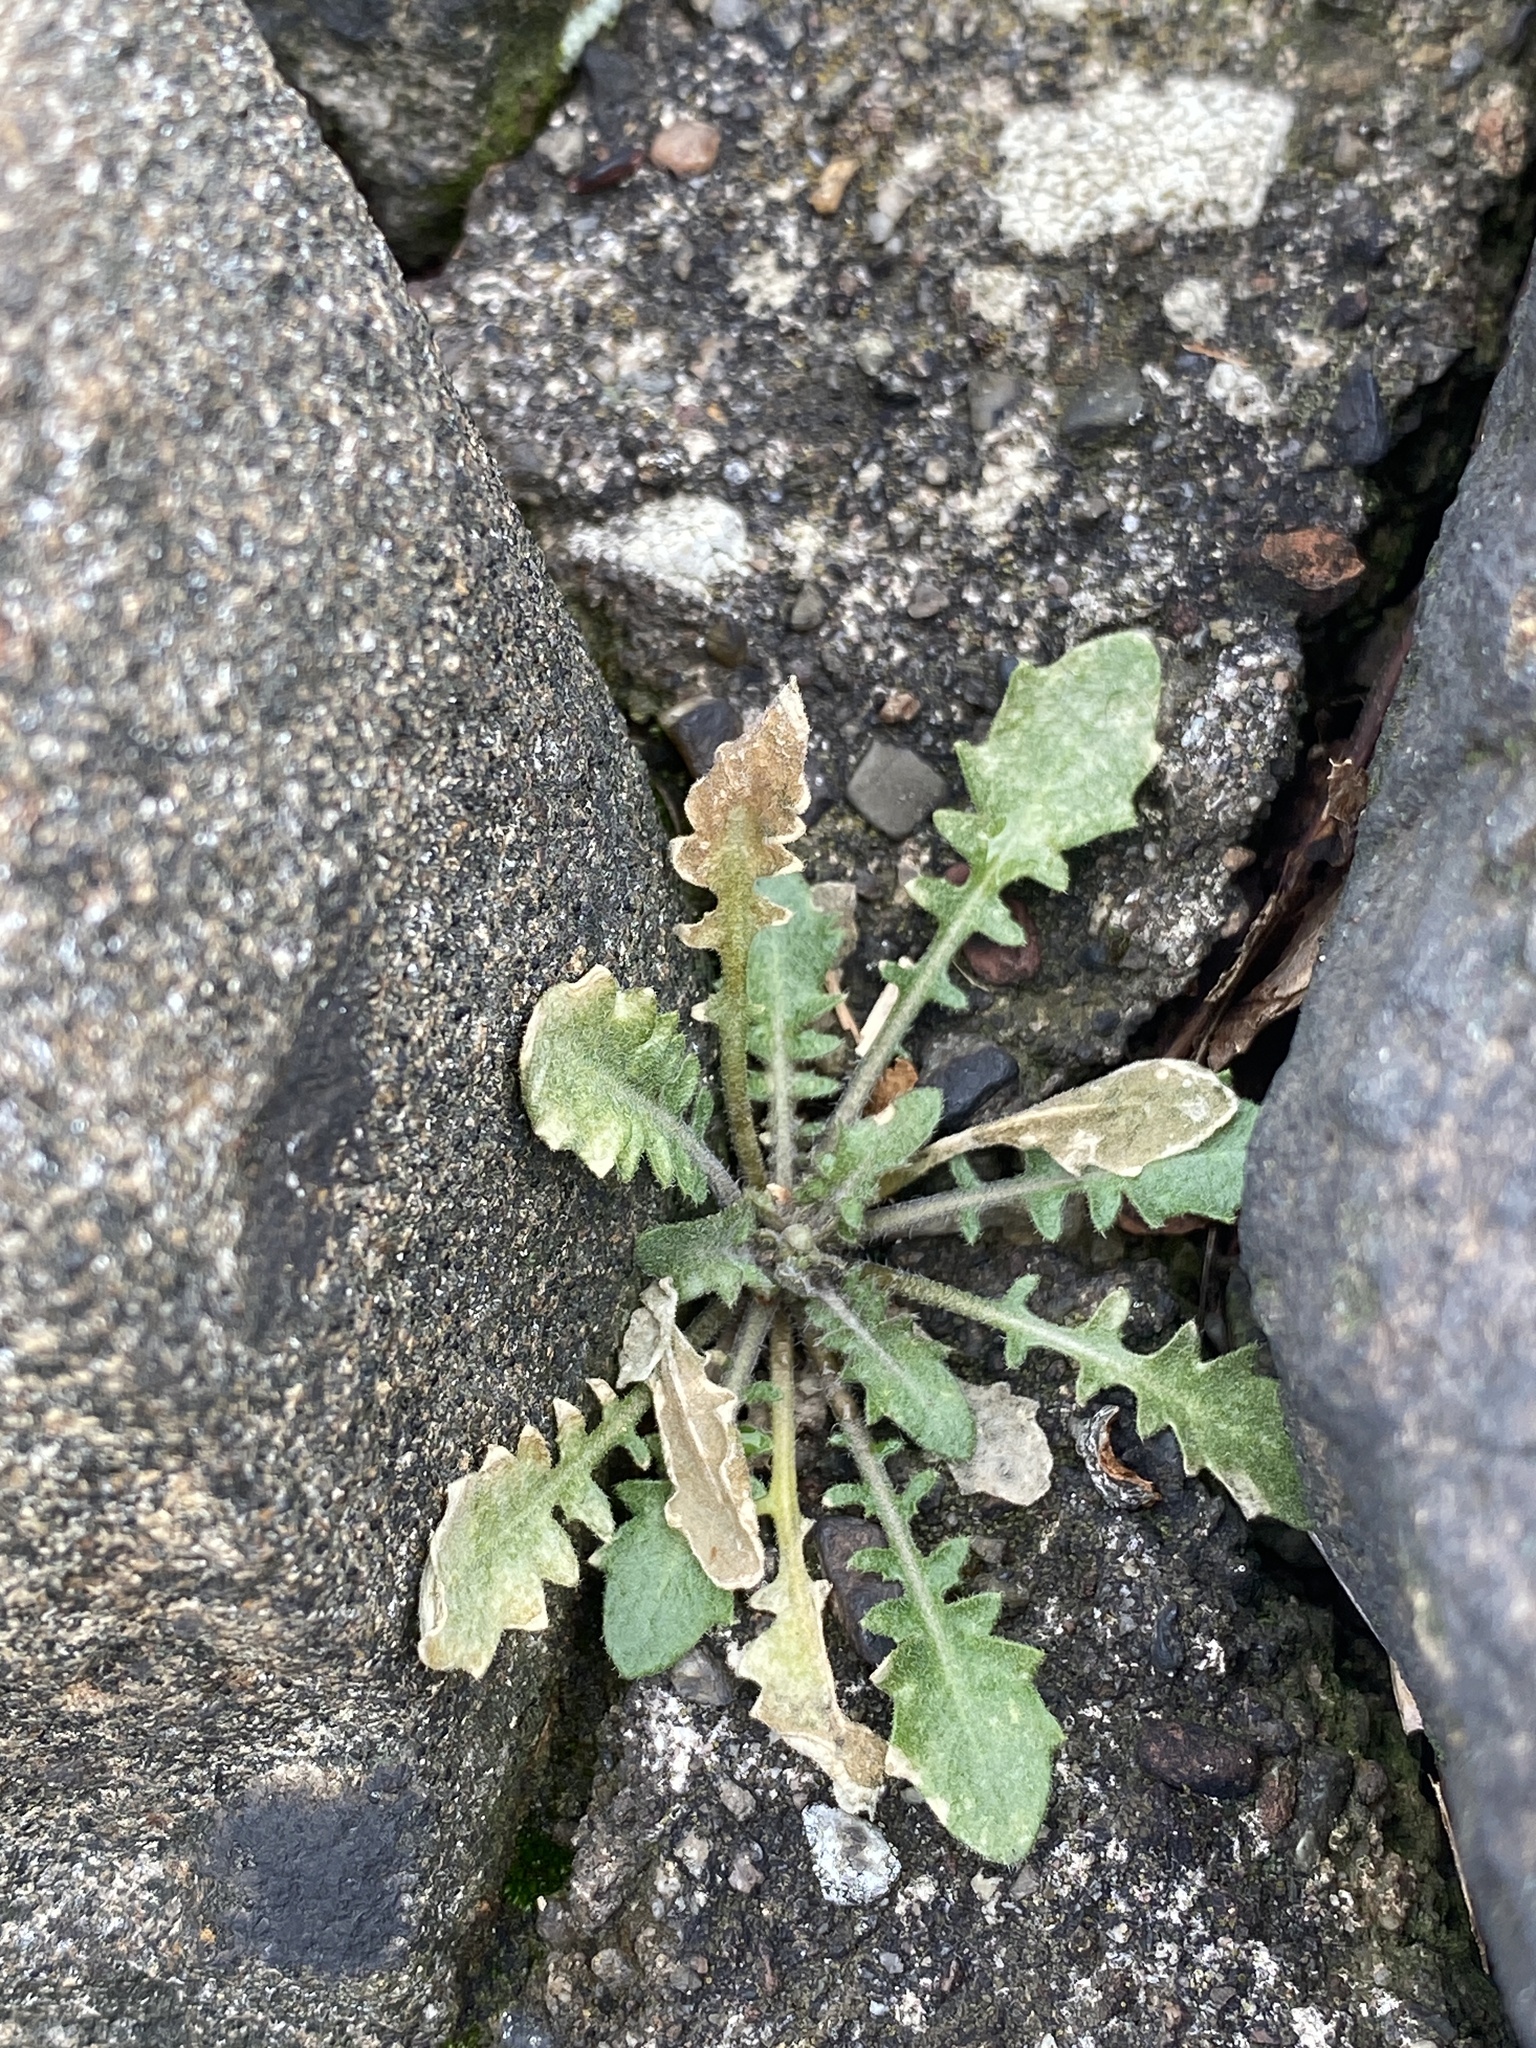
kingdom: Plantae
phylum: Tracheophyta
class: Magnoliopsida
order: Brassicales
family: Brassicaceae
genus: Arabidopsis
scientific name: Arabidopsis lyrata
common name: Lyrate rockcress
